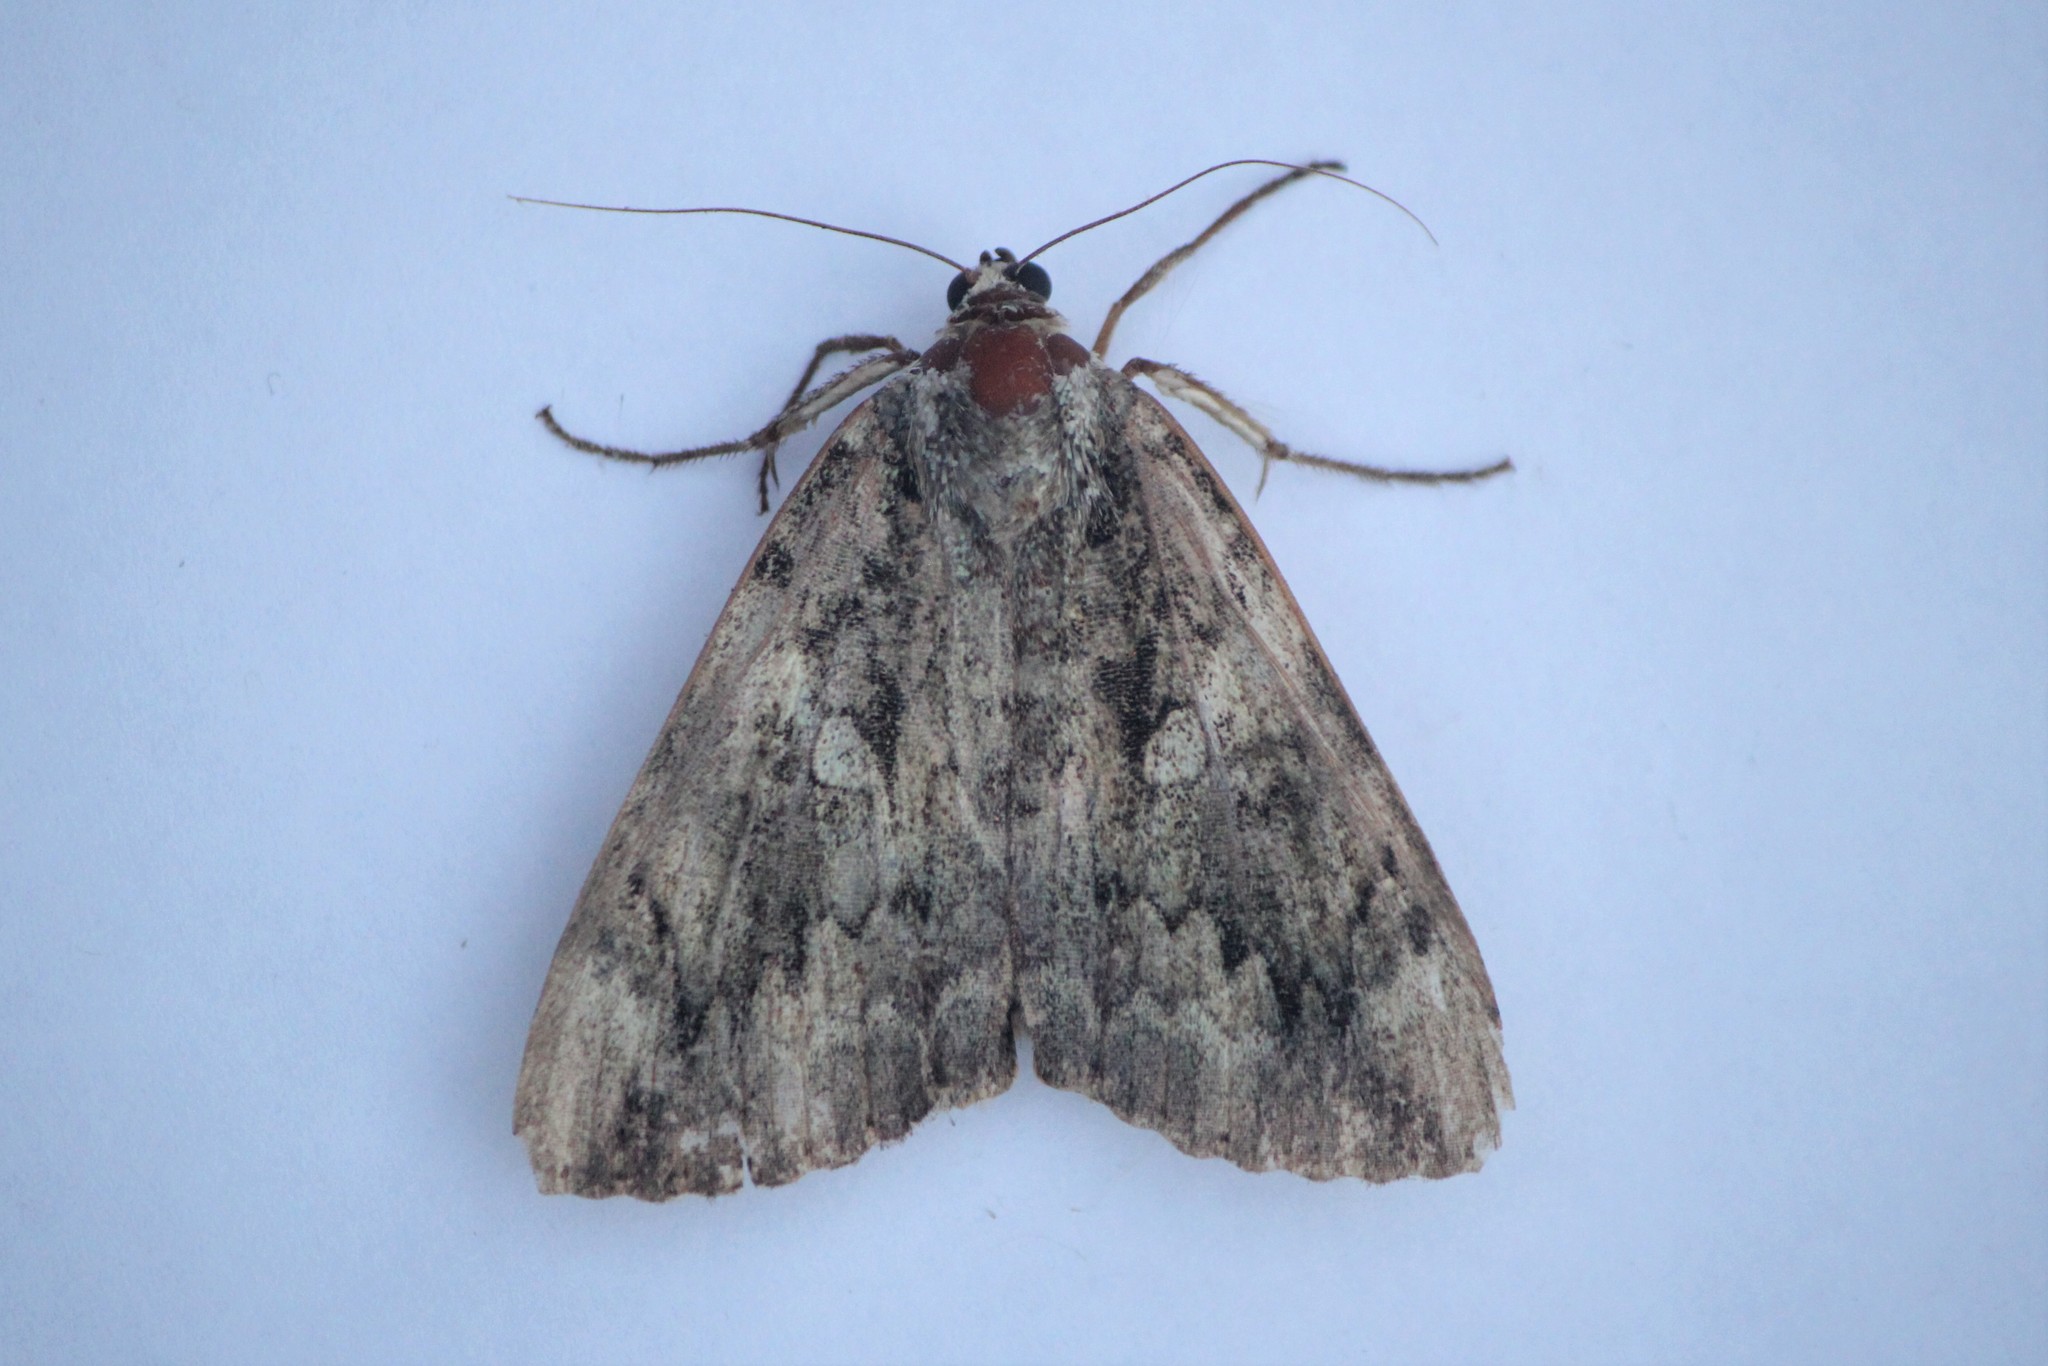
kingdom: Animalia
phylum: Arthropoda
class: Insecta
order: Lepidoptera
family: Erebidae
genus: Catocala
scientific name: Catocala ilia
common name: Ilia underwing
